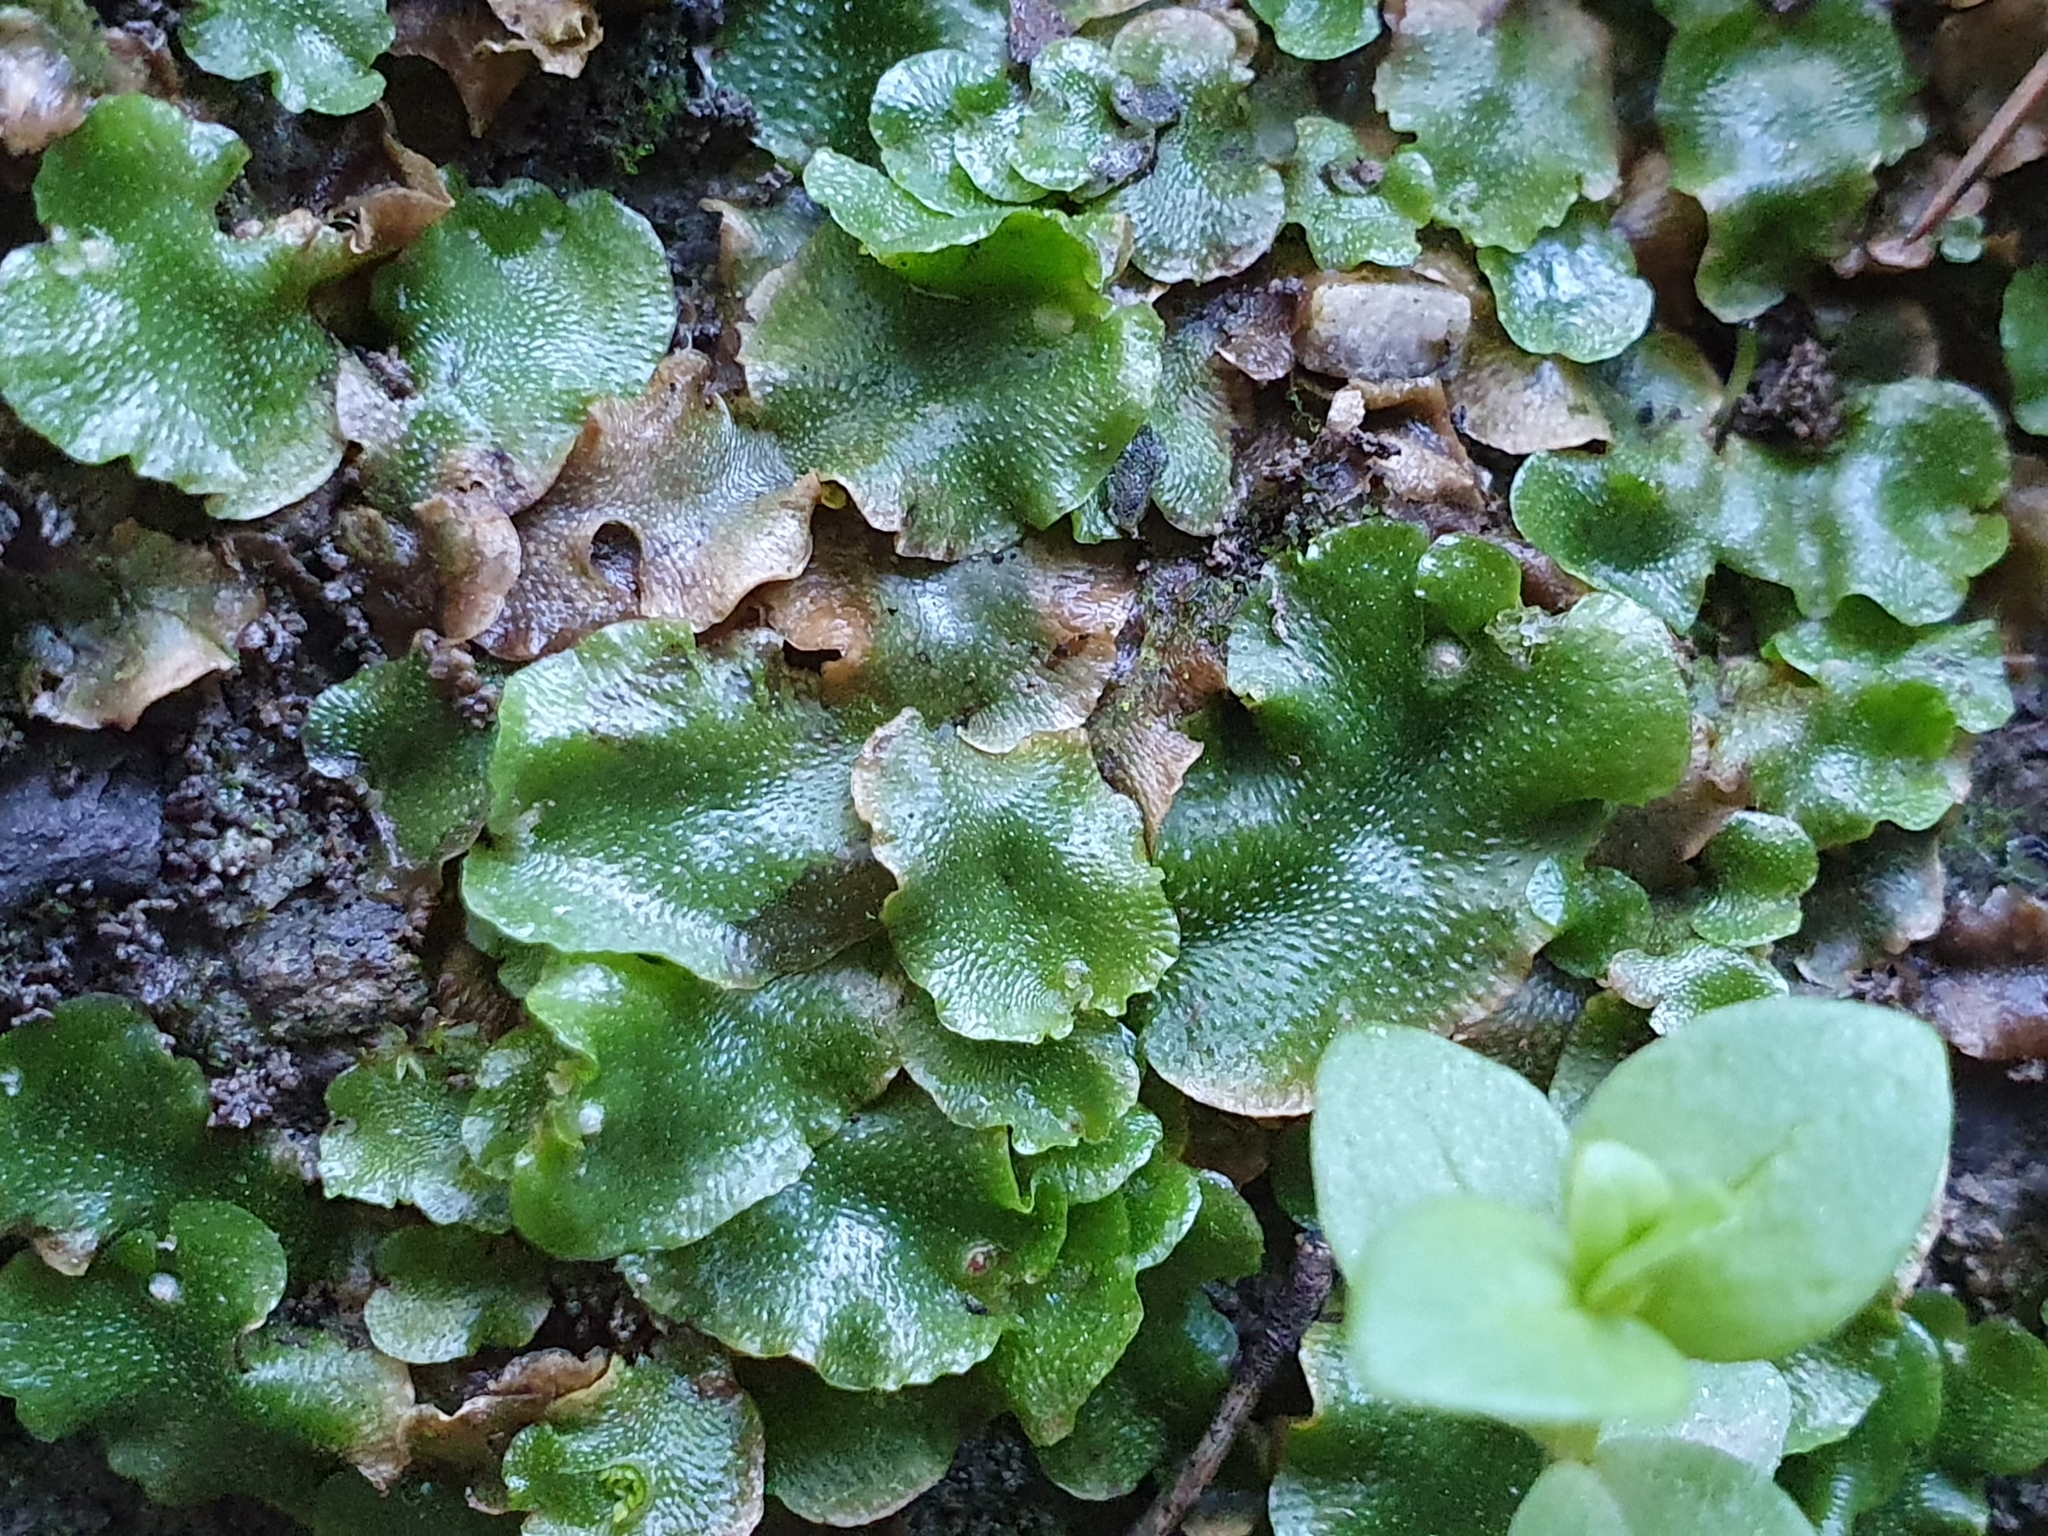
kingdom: Plantae
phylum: Marchantiophyta
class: Marchantiopsida
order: Lunulariales
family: Lunulariaceae
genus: Lunularia
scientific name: Lunularia cruciata
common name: Crescent-cup liverwort
